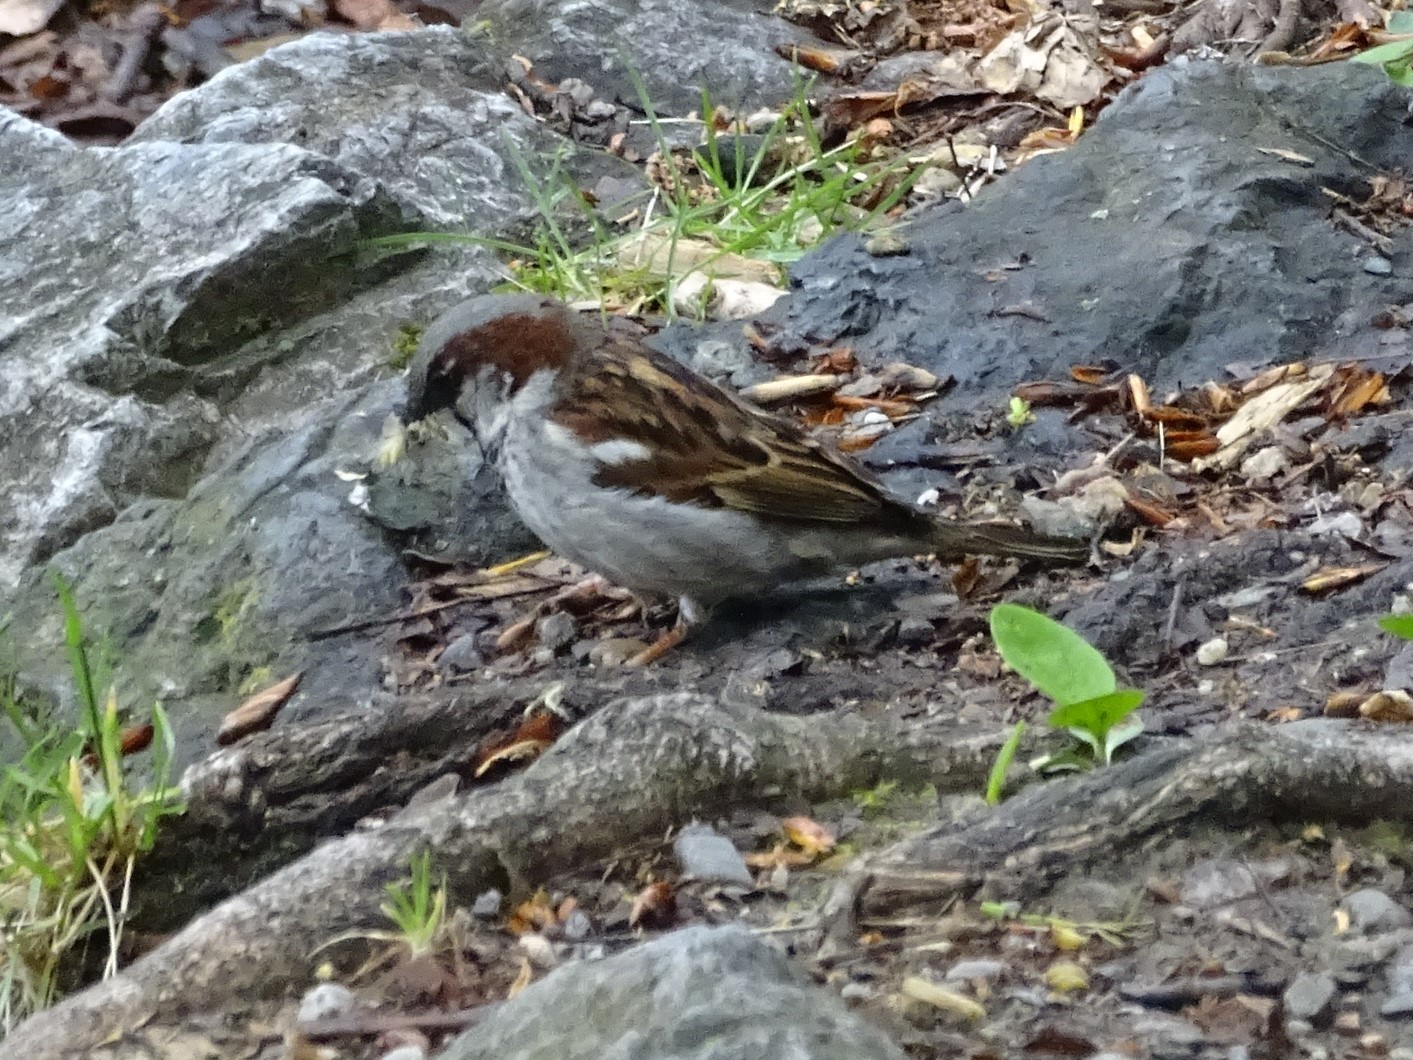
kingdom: Animalia
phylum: Chordata
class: Aves
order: Passeriformes
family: Passeridae
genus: Passer
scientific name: Passer domesticus
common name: House sparrow
